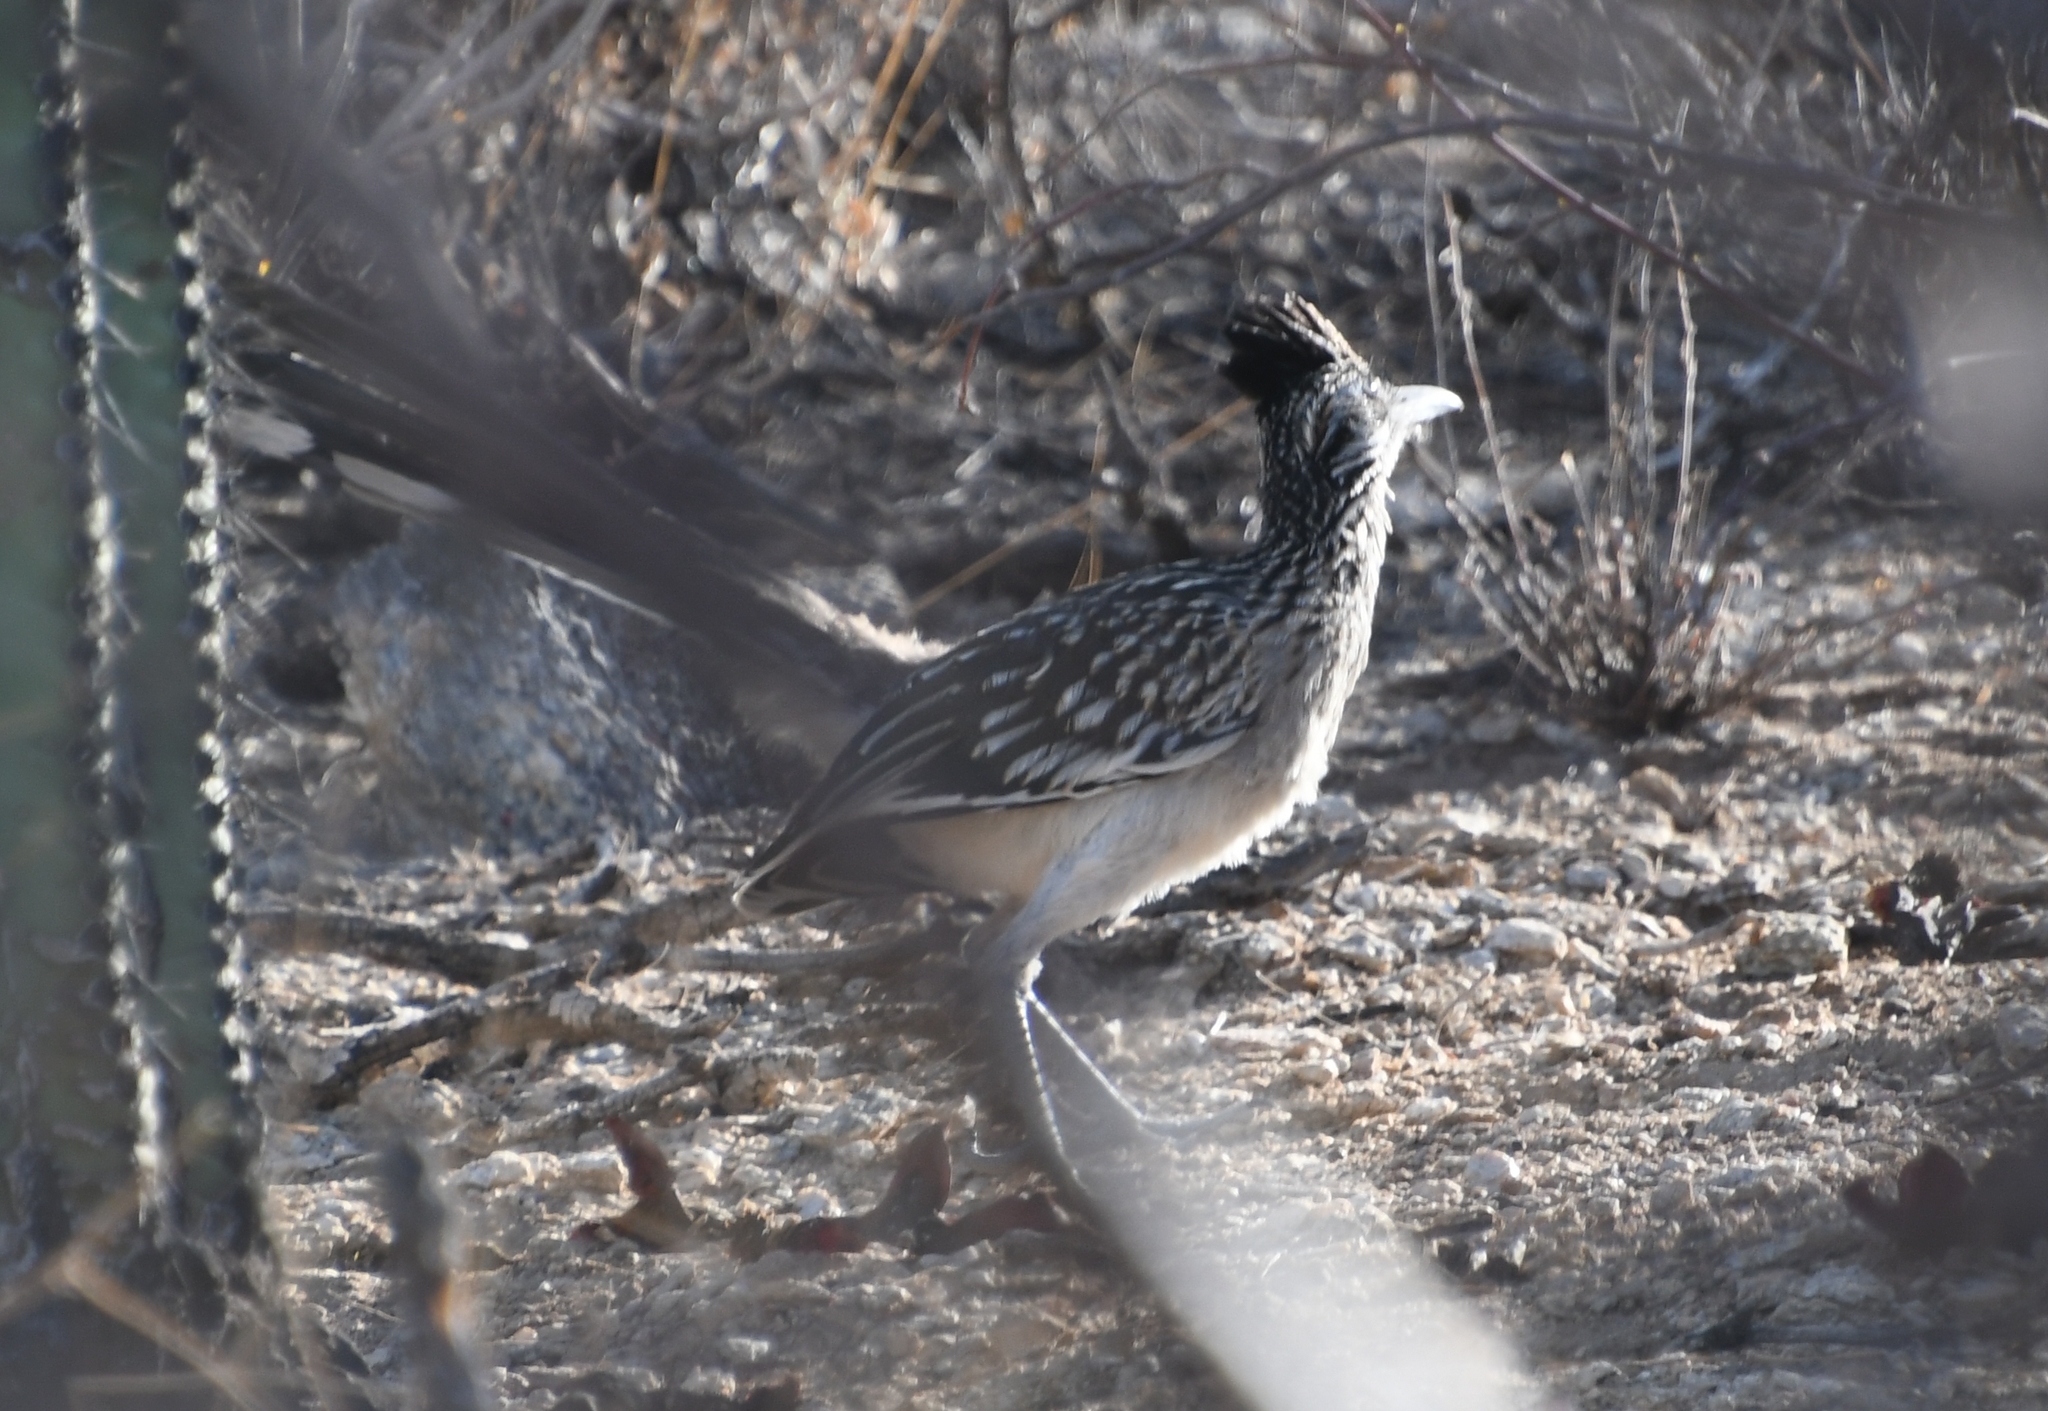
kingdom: Animalia
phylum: Chordata
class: Aves
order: Cuculiformes
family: Cuculidae
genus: Geococcyx
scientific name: Geococcyx californianus
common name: Greater roadrunner
